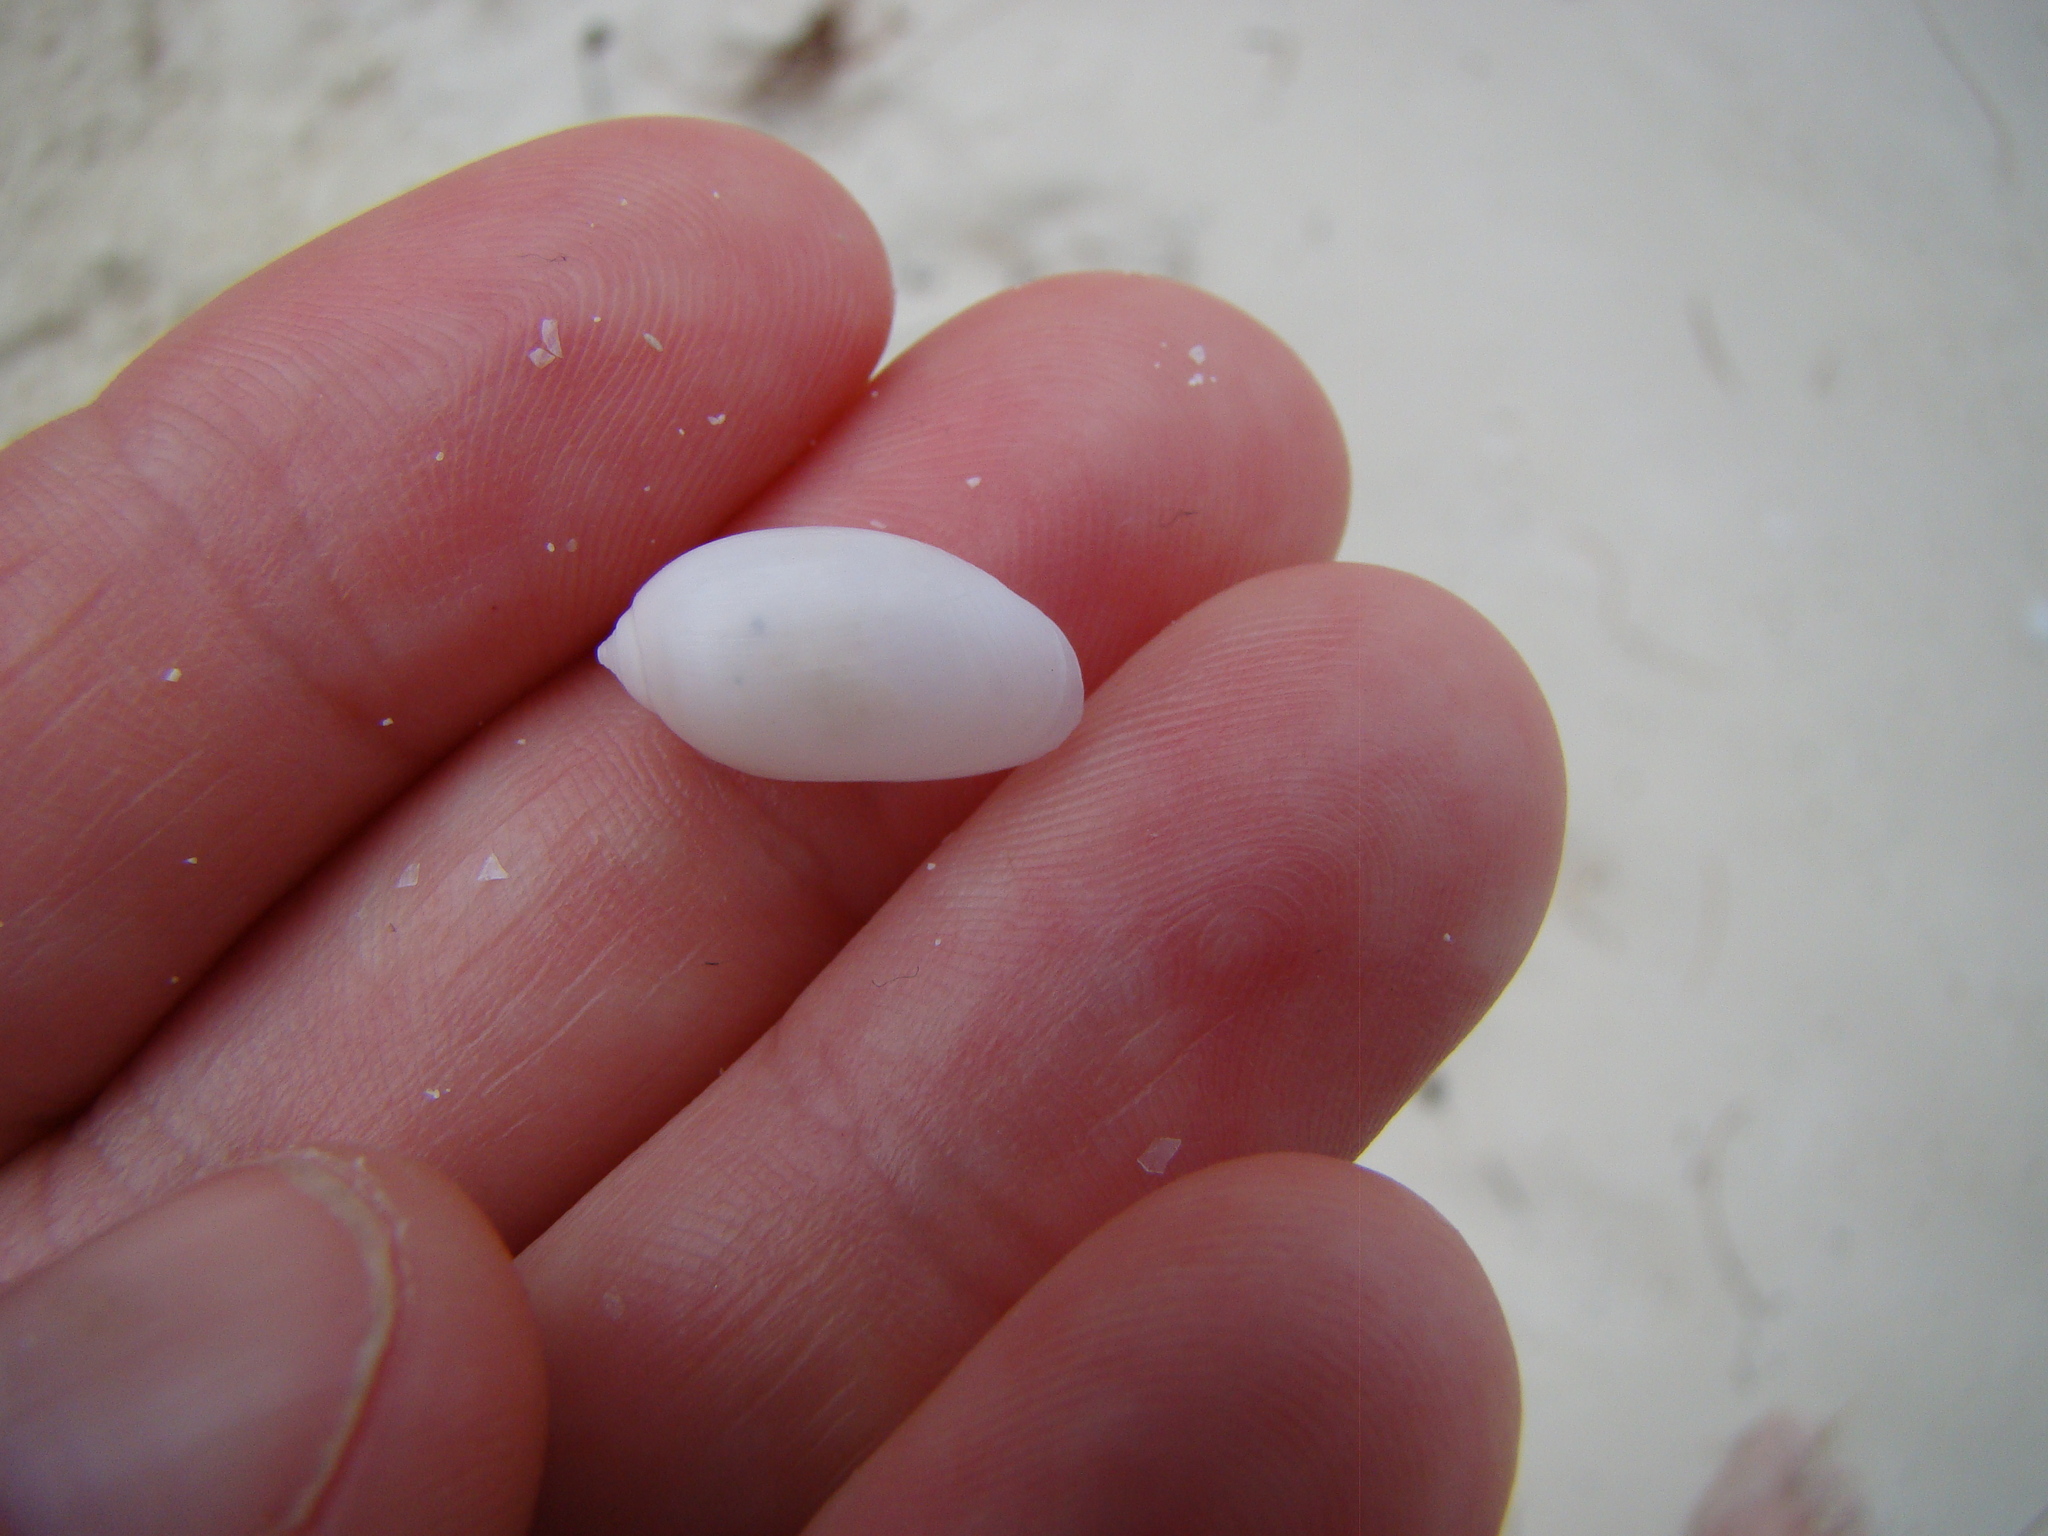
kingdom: Animalia
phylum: Mollusca
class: Gastropoda
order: Cephalaspidea
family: Acteonidae
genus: Pupa
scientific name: Pupa nitidula
